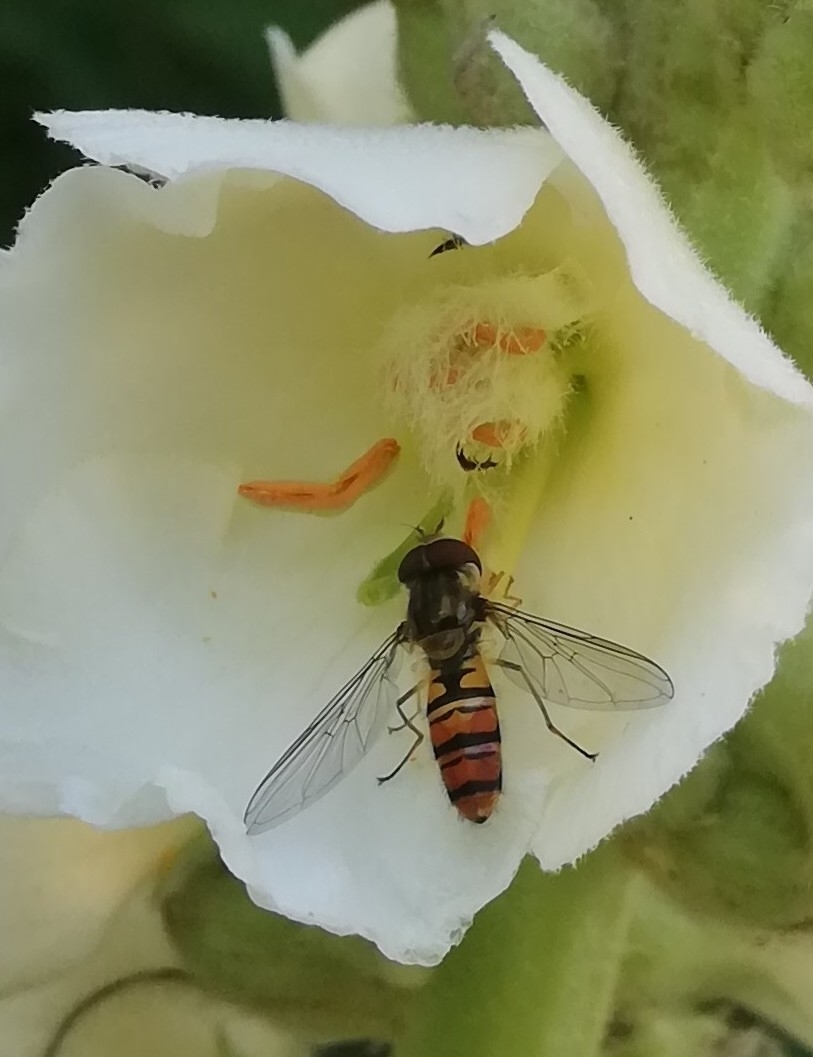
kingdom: Animalia
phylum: Arthropoda
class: Insecta
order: Diptera
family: Syrphidae
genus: Episyrphus
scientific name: Episyrphus balteatus
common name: Marmalade hoverfly
